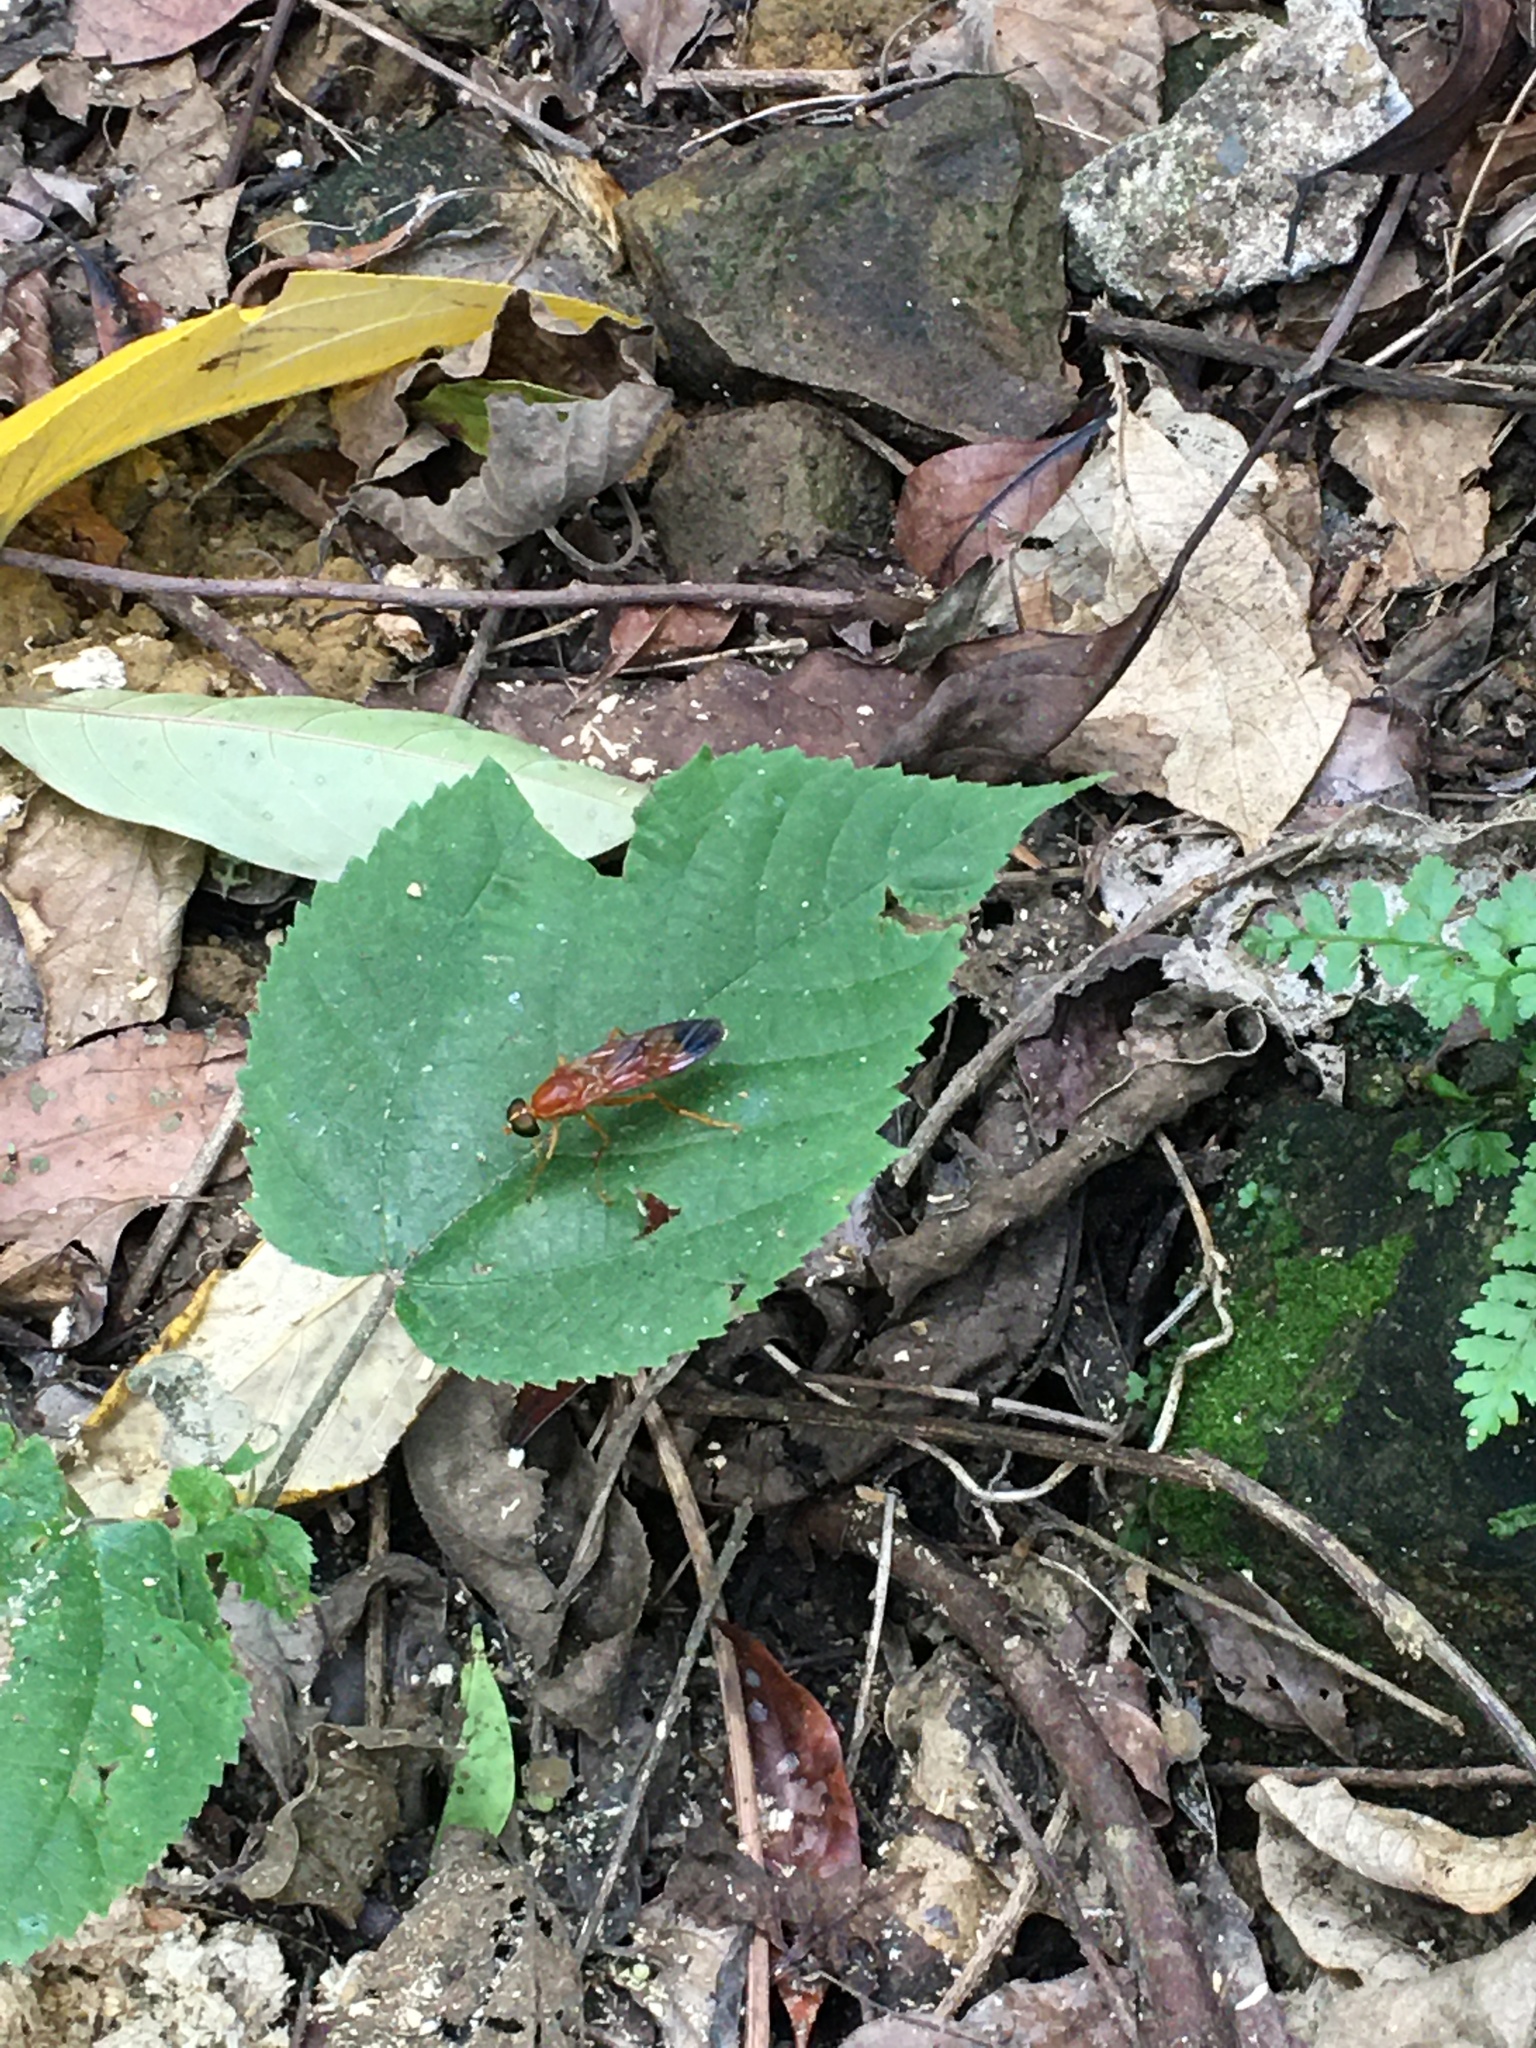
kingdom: Animalia
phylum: Arthropoda
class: Insecta
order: Diptera
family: Stratiomyidae
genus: Ptecticus
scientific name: Ptecticus aurifer
